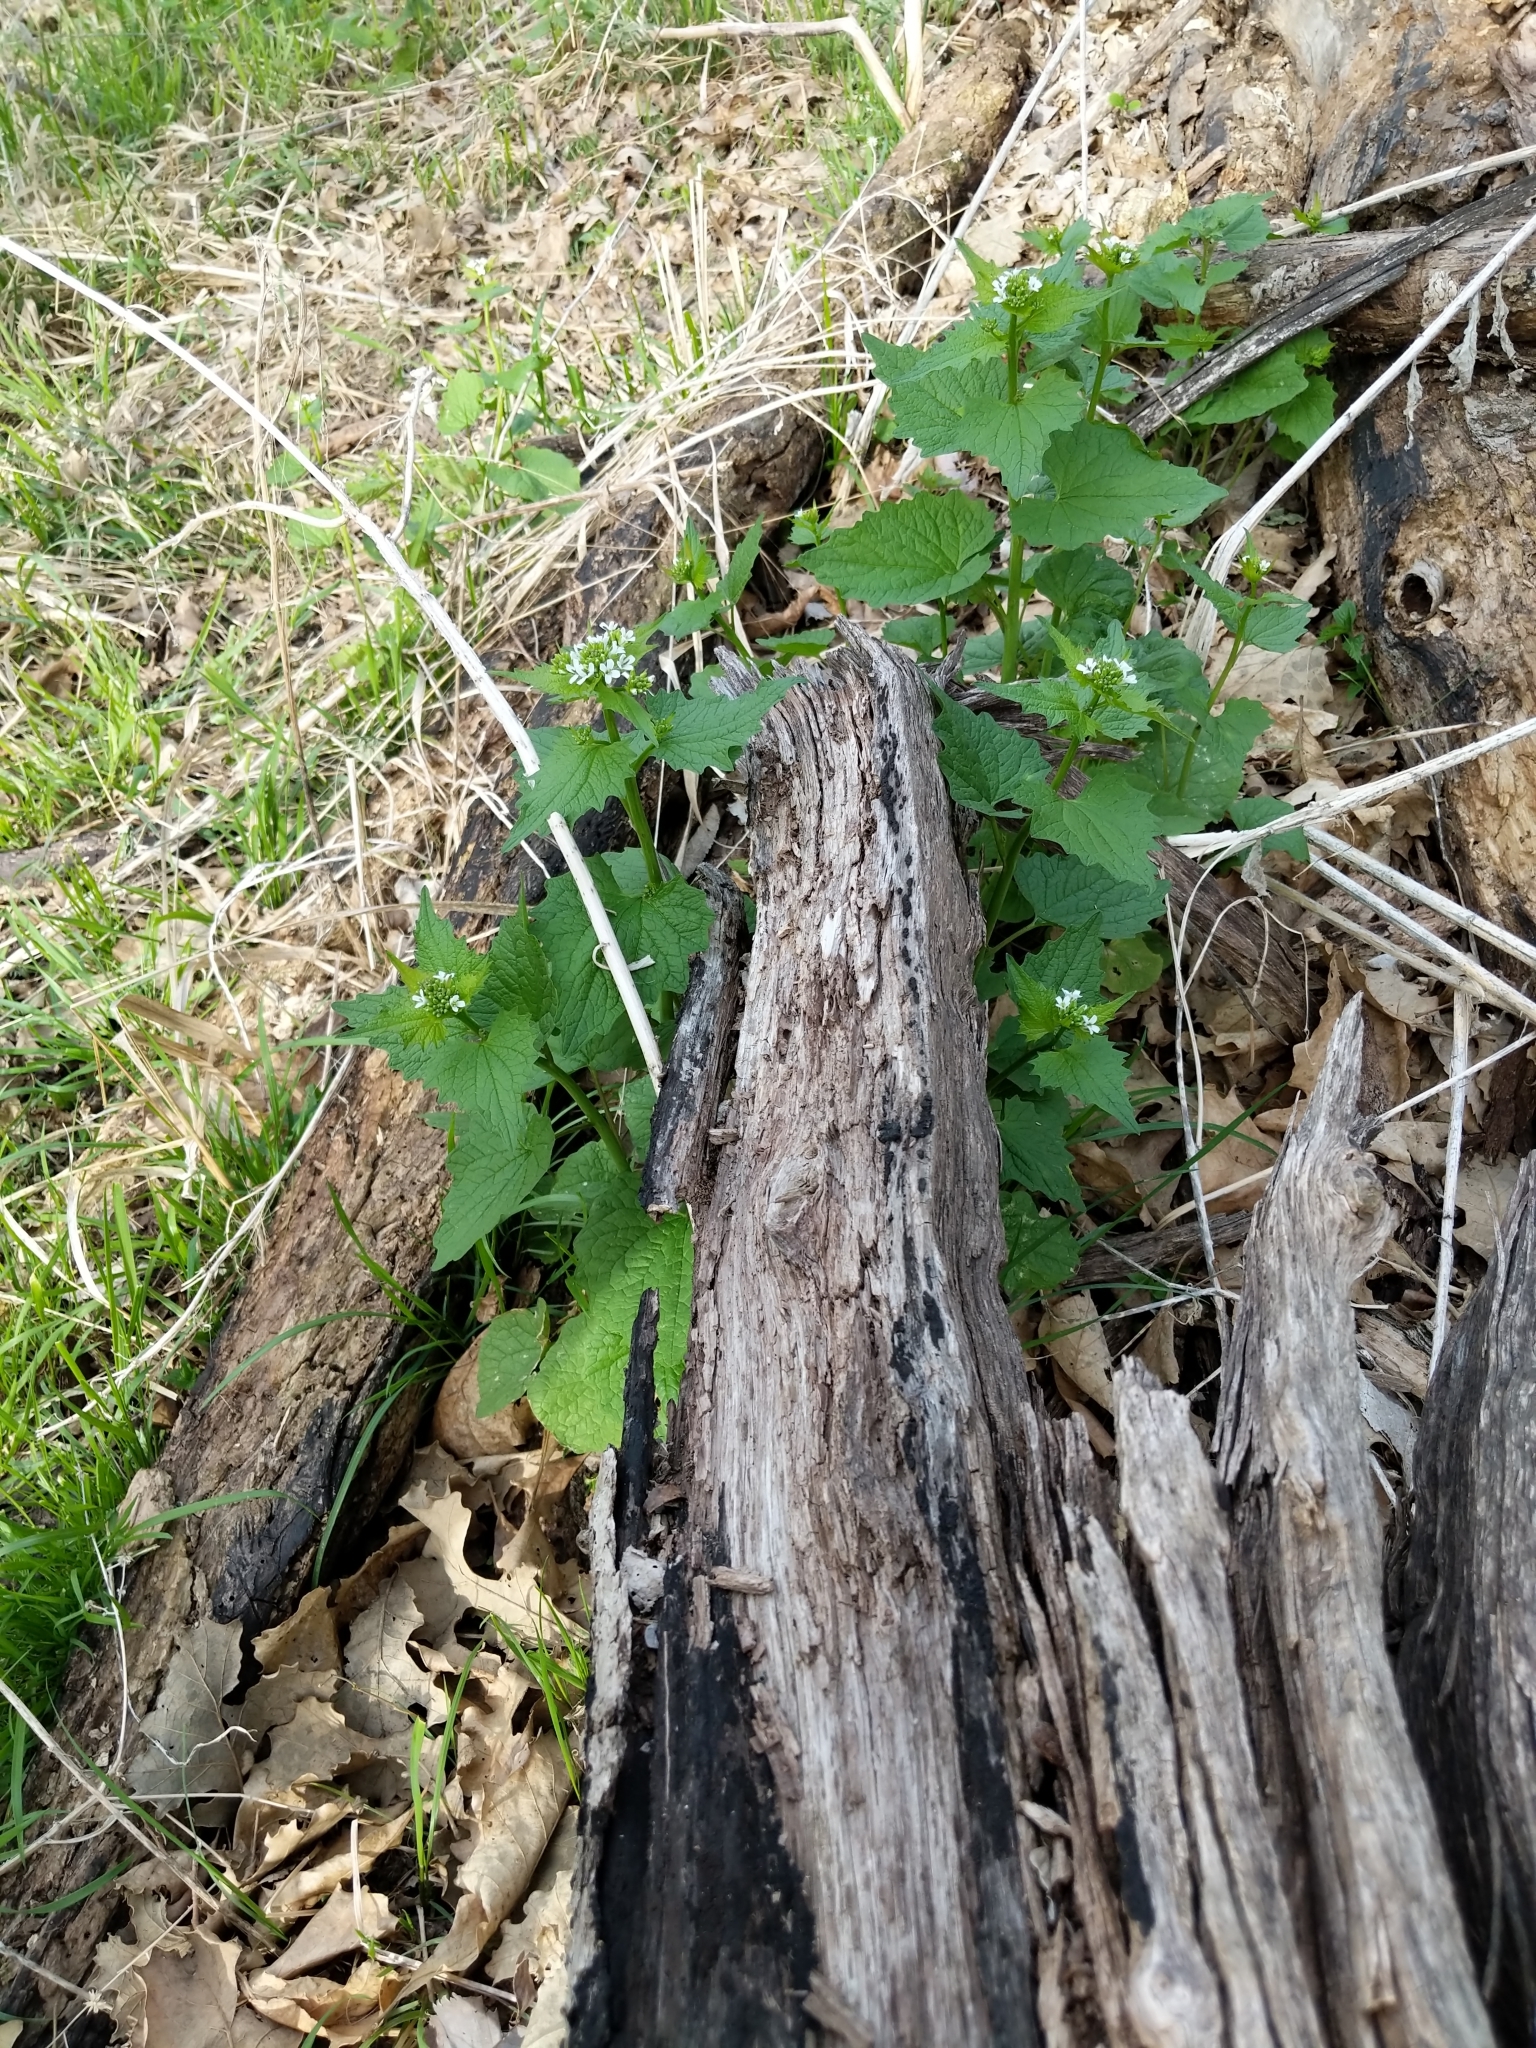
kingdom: Plantae
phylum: Tracheophyta
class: Magnoliopsida
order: Brassicales
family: Brassicaceae
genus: Alliaria
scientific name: Alliaria petiolata
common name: Garlic mustard
